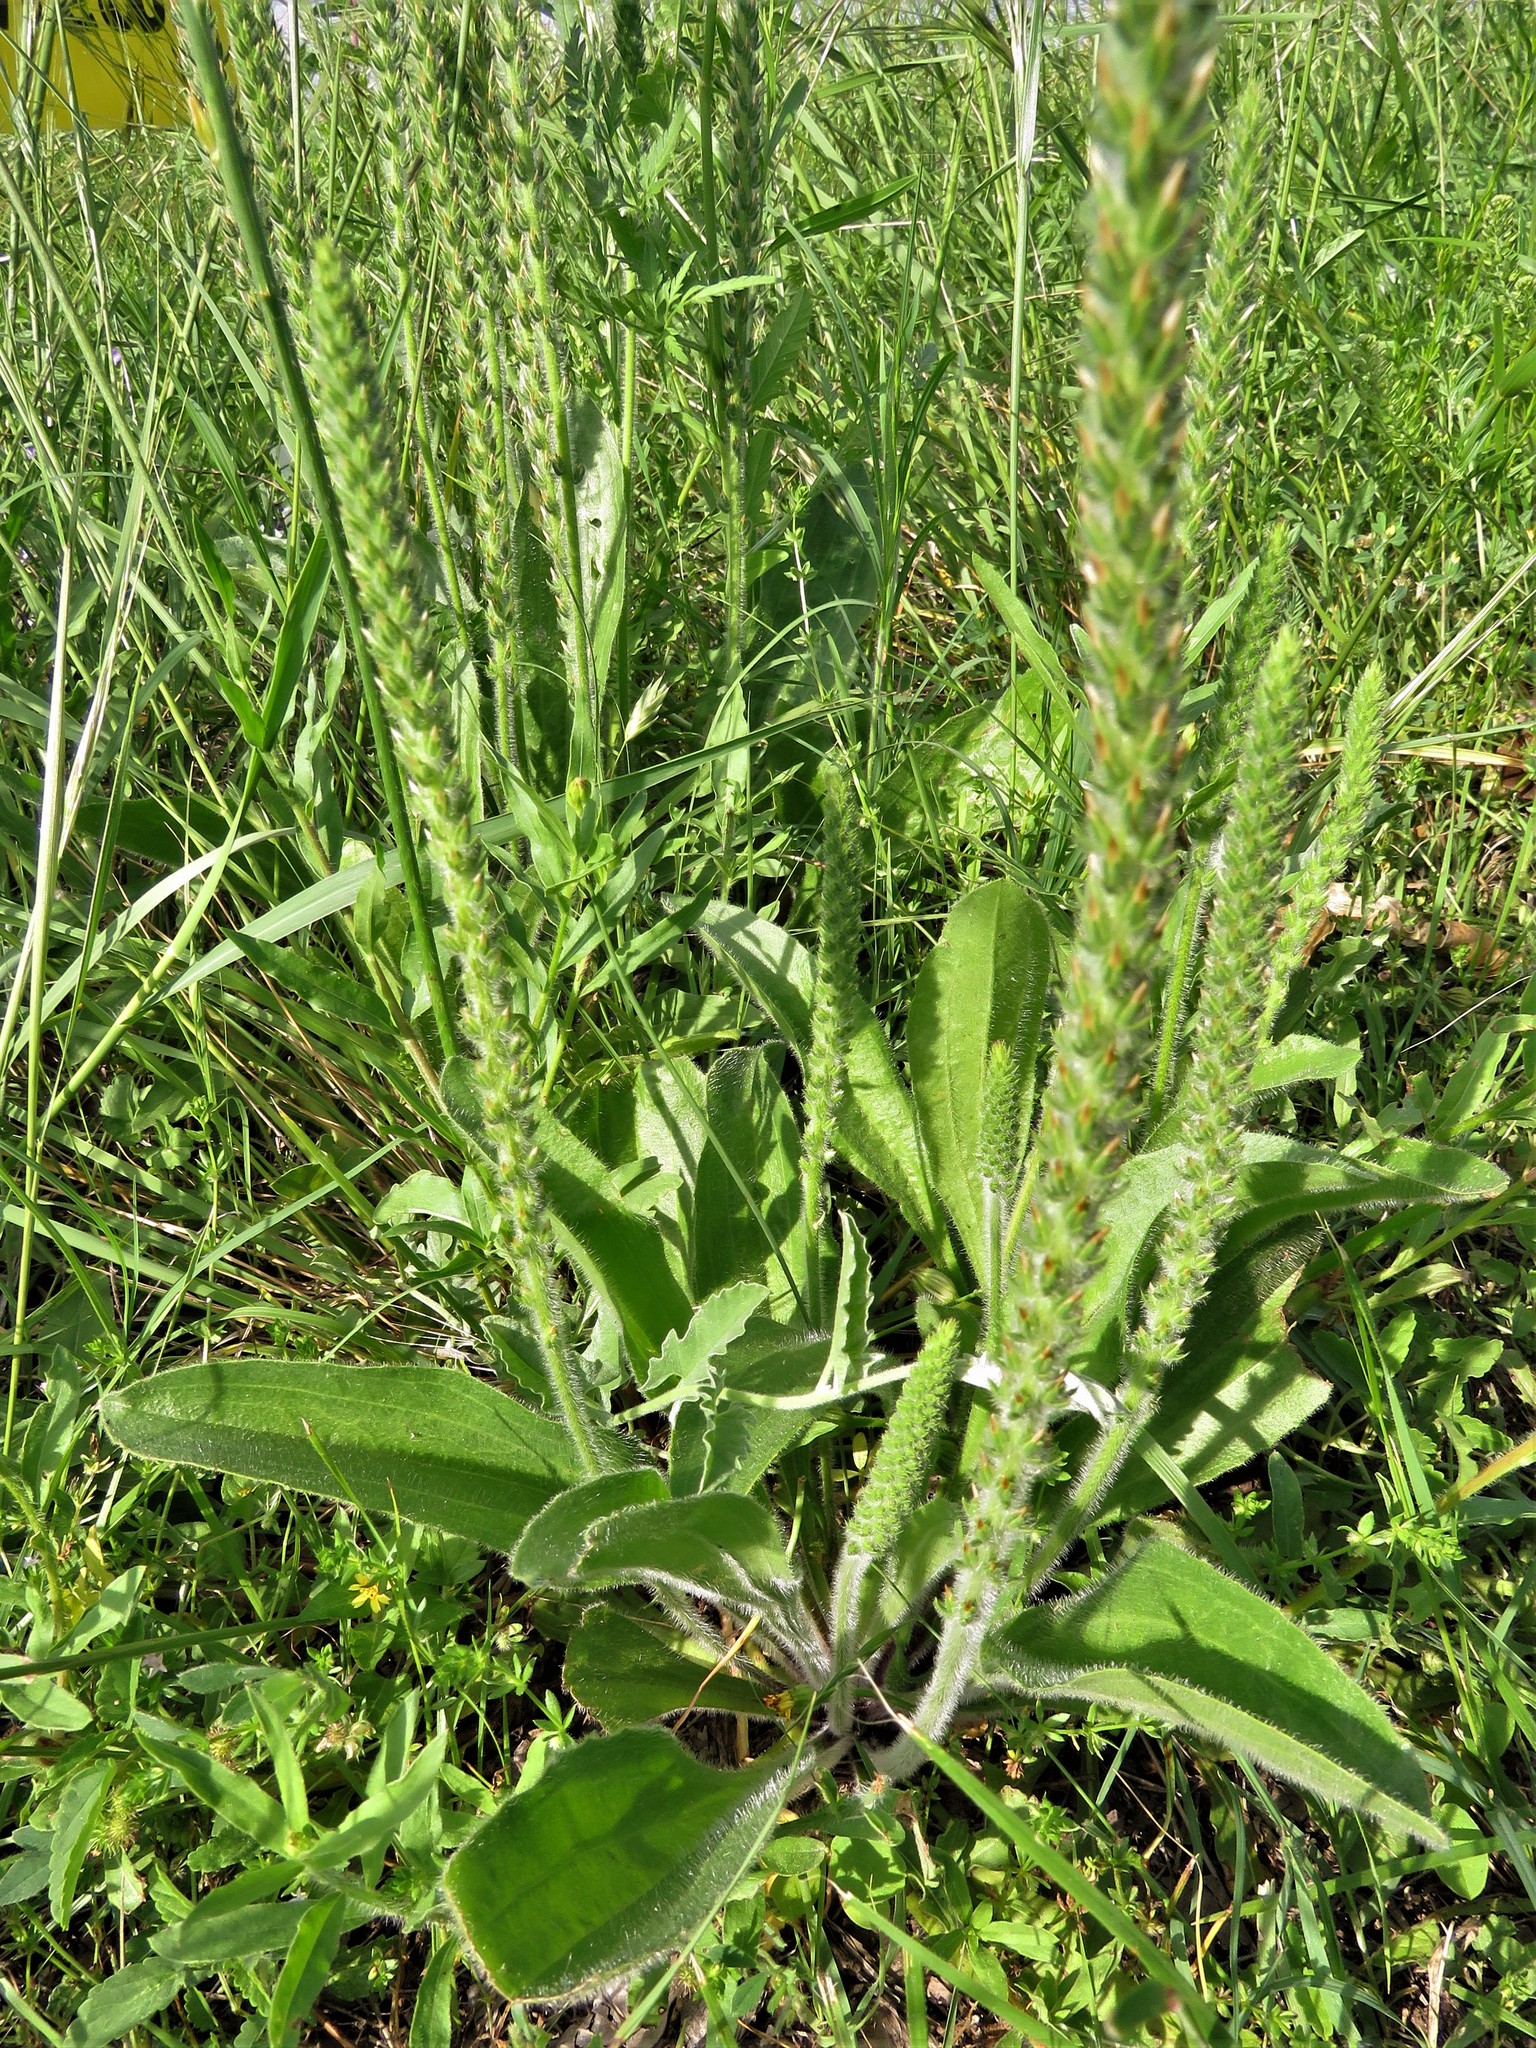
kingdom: Plantae
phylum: Tracheophyta
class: Magnoliopsida
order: Lamiales
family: Plantaginaceae
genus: Plantago
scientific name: Plantago virginica
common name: Hoary plantain
